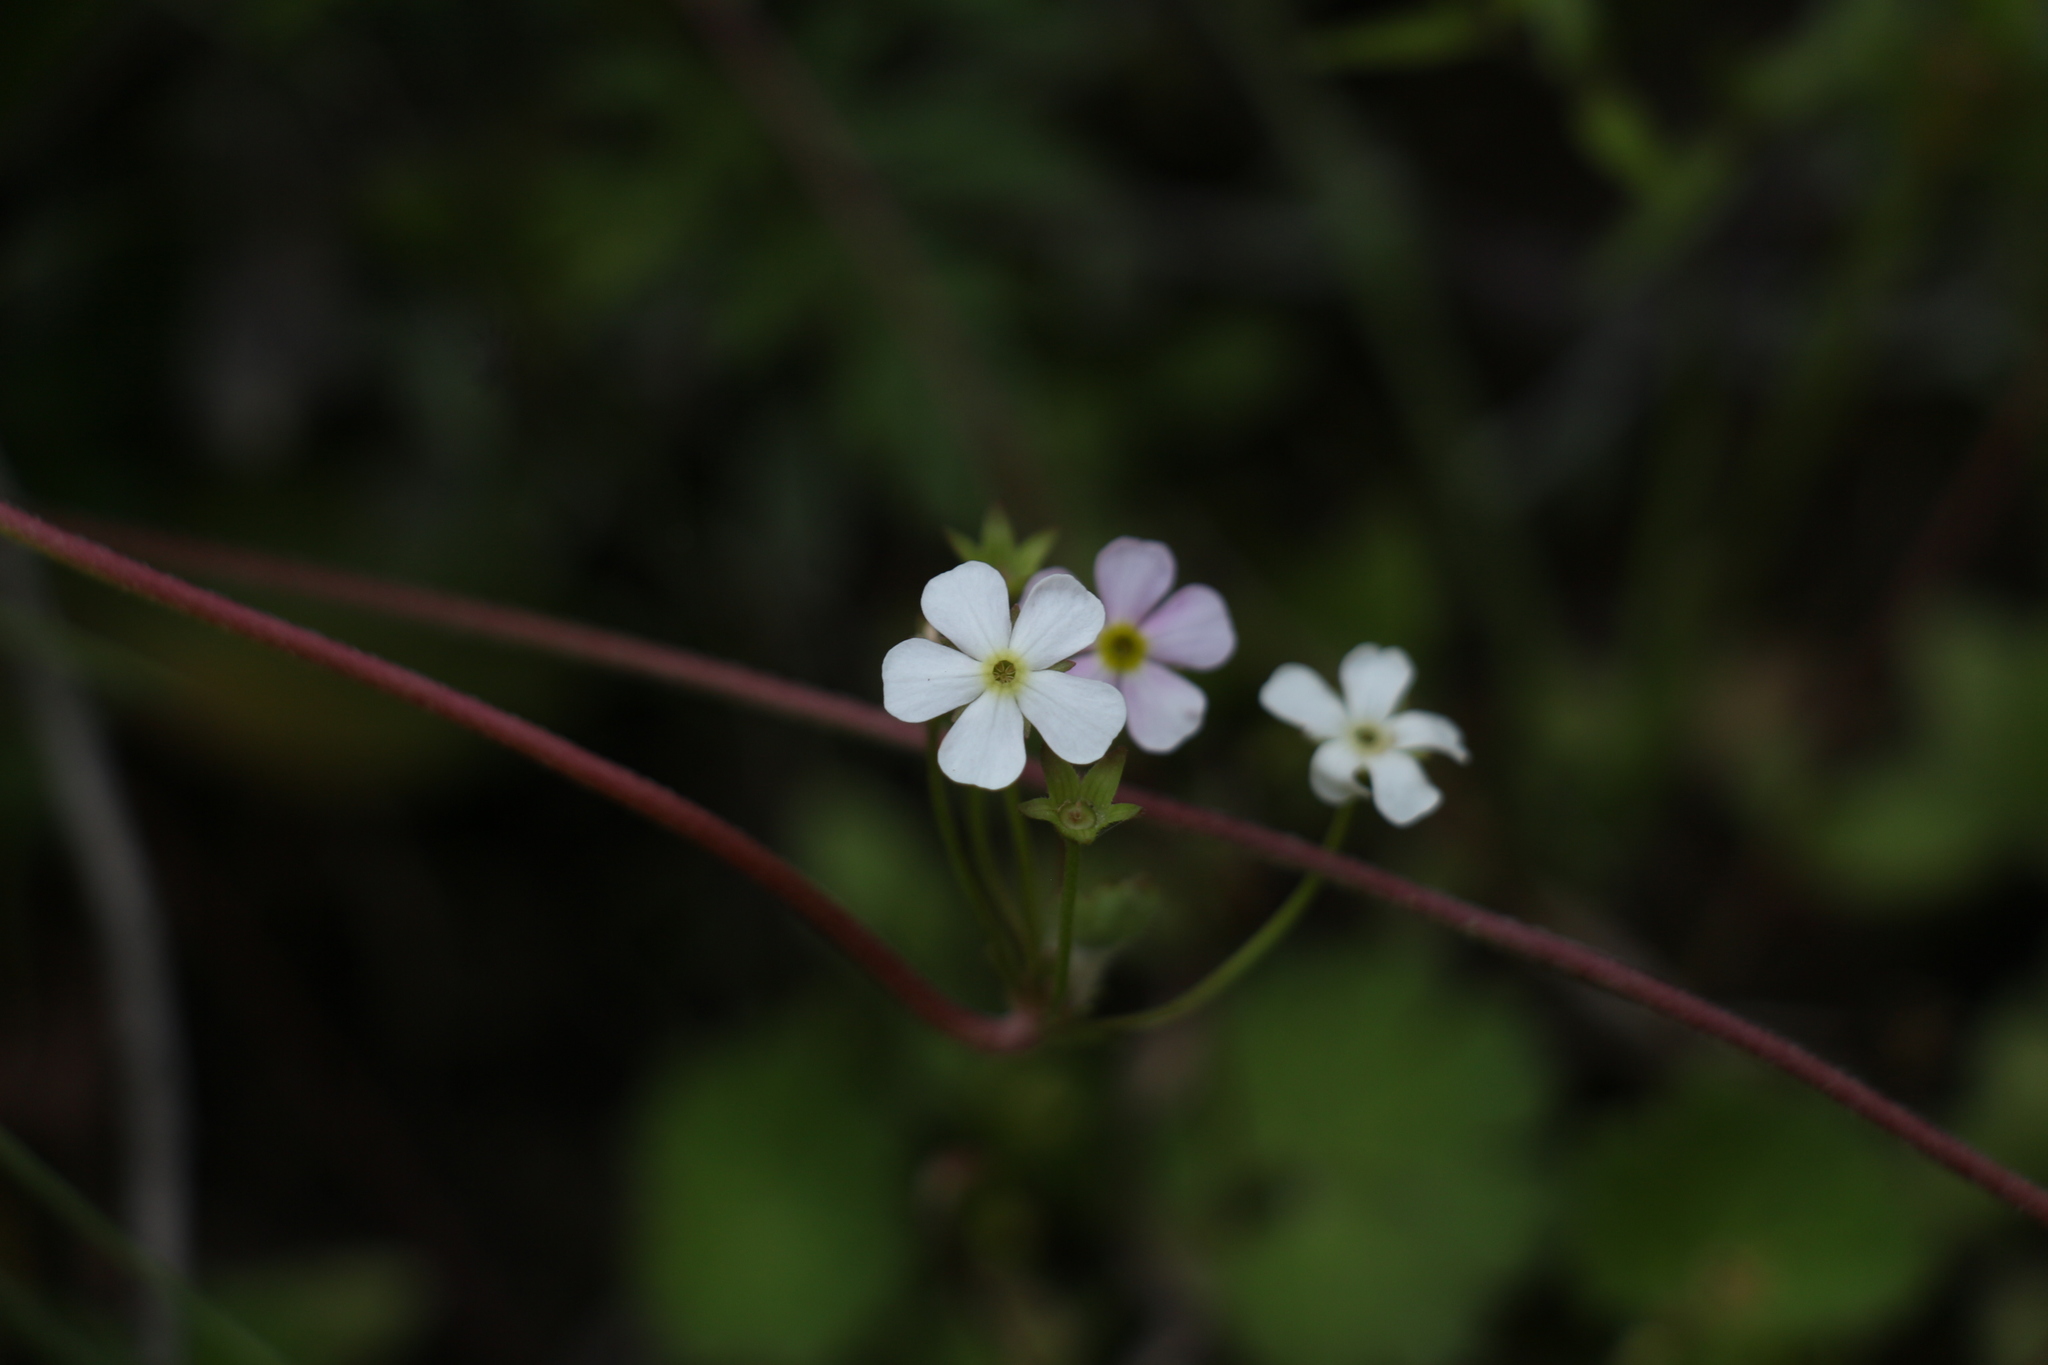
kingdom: Plantae
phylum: Tracheophyta
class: Magnoliopsida
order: Ericales
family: Primulaceae
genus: Androsace
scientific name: Androsace geraniifolia
